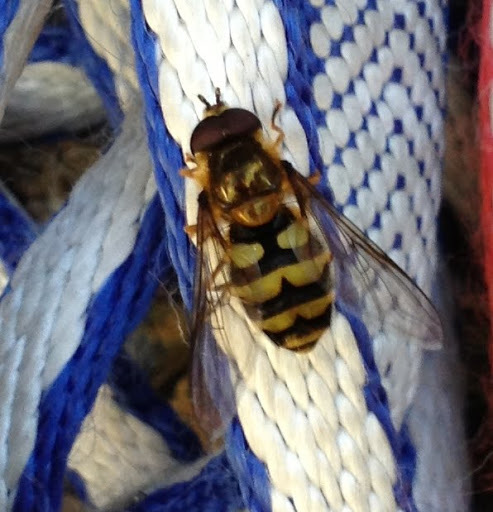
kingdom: Animalia
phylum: Arthropoda
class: Insecta
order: Diptera
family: Syrphidae
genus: Megasyrphus
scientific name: Megasyrphus laxus
